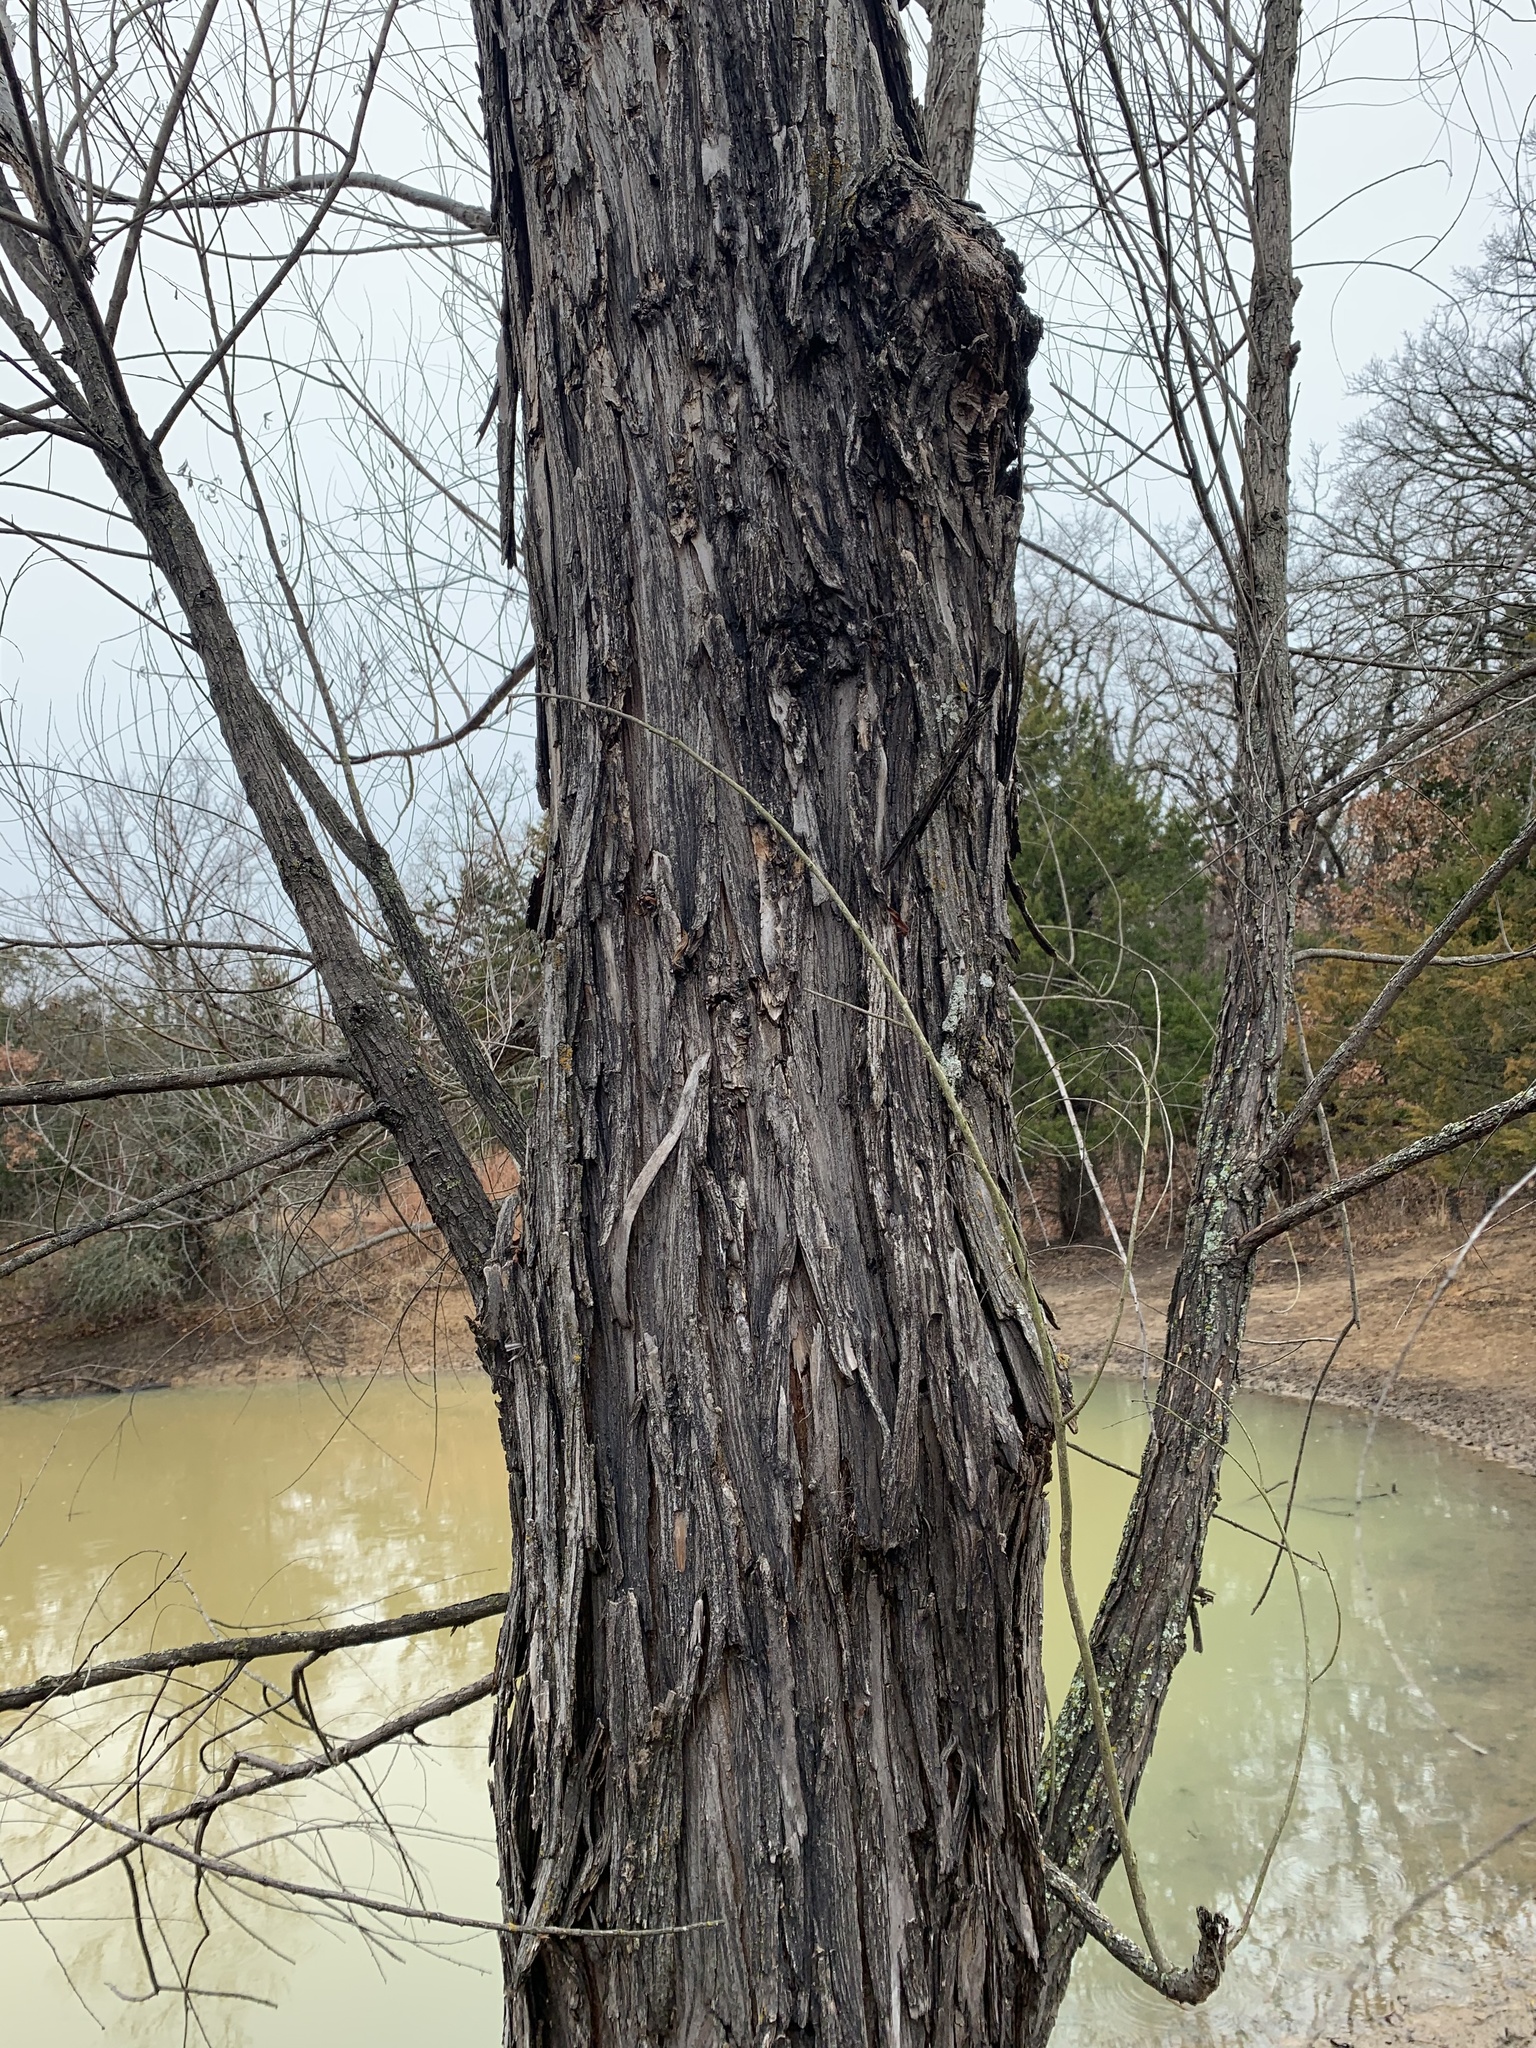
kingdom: Plantae
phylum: Tracheophyta
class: Magnoliopsida
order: Malpighiales
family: Salicaceae
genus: Salix
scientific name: Salix nigra
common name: Black willow
